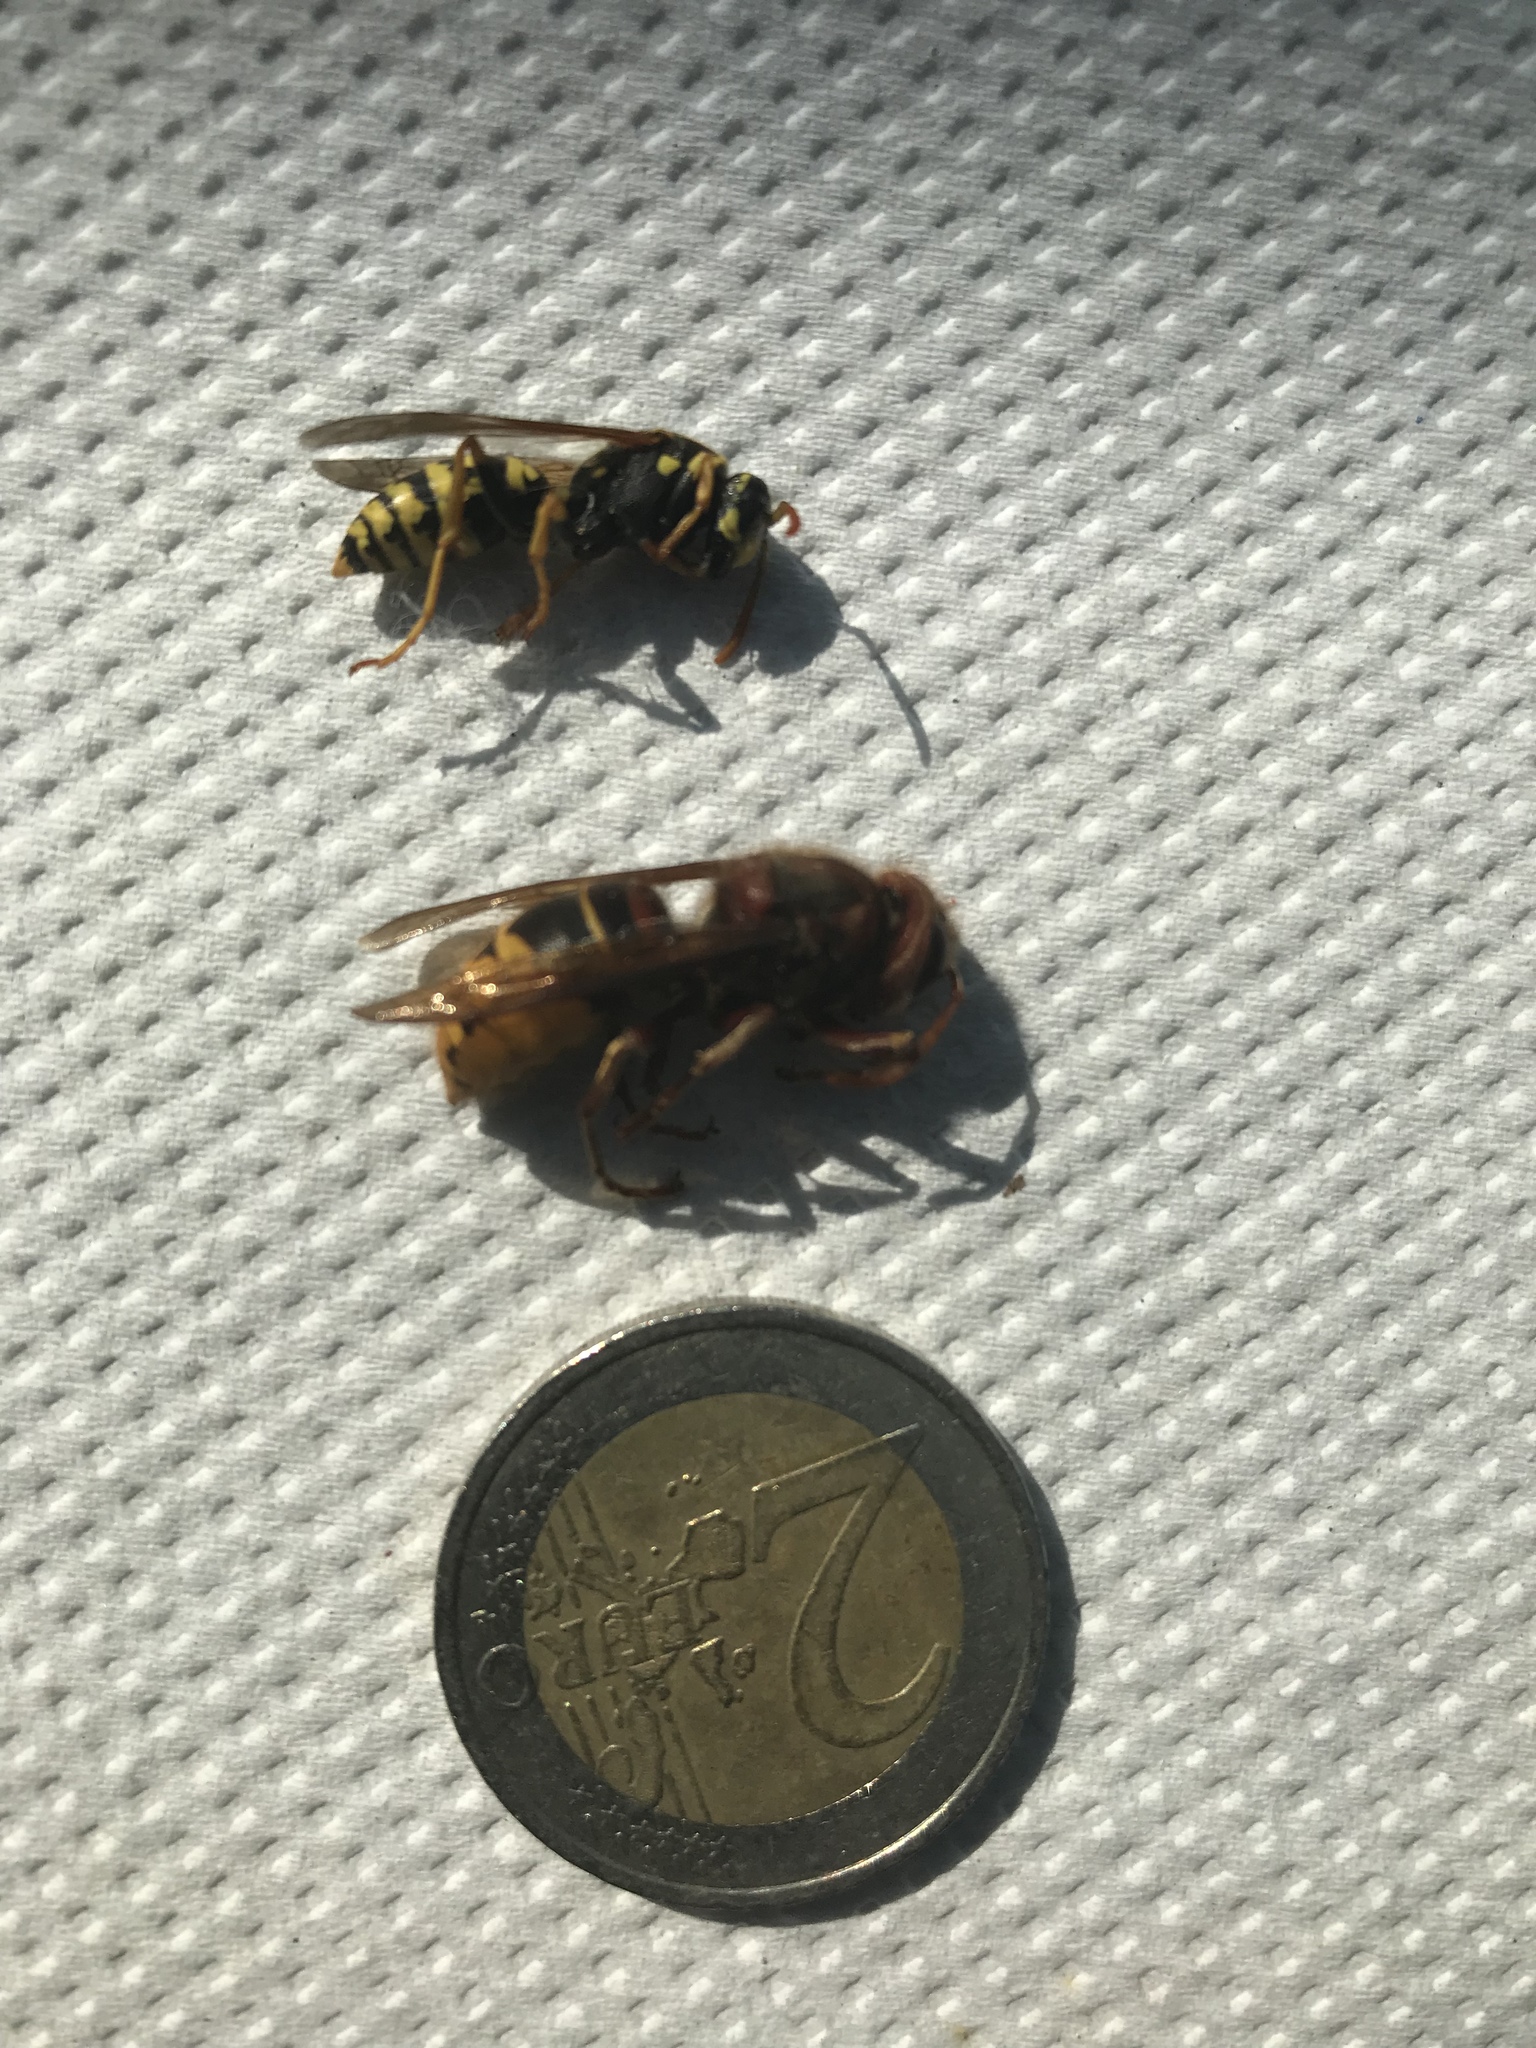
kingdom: Animalia
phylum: Arthropoda
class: Insecta
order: Hymenoptera
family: Vespidae
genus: Vespa
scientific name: Vespa crabro
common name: Hornet
